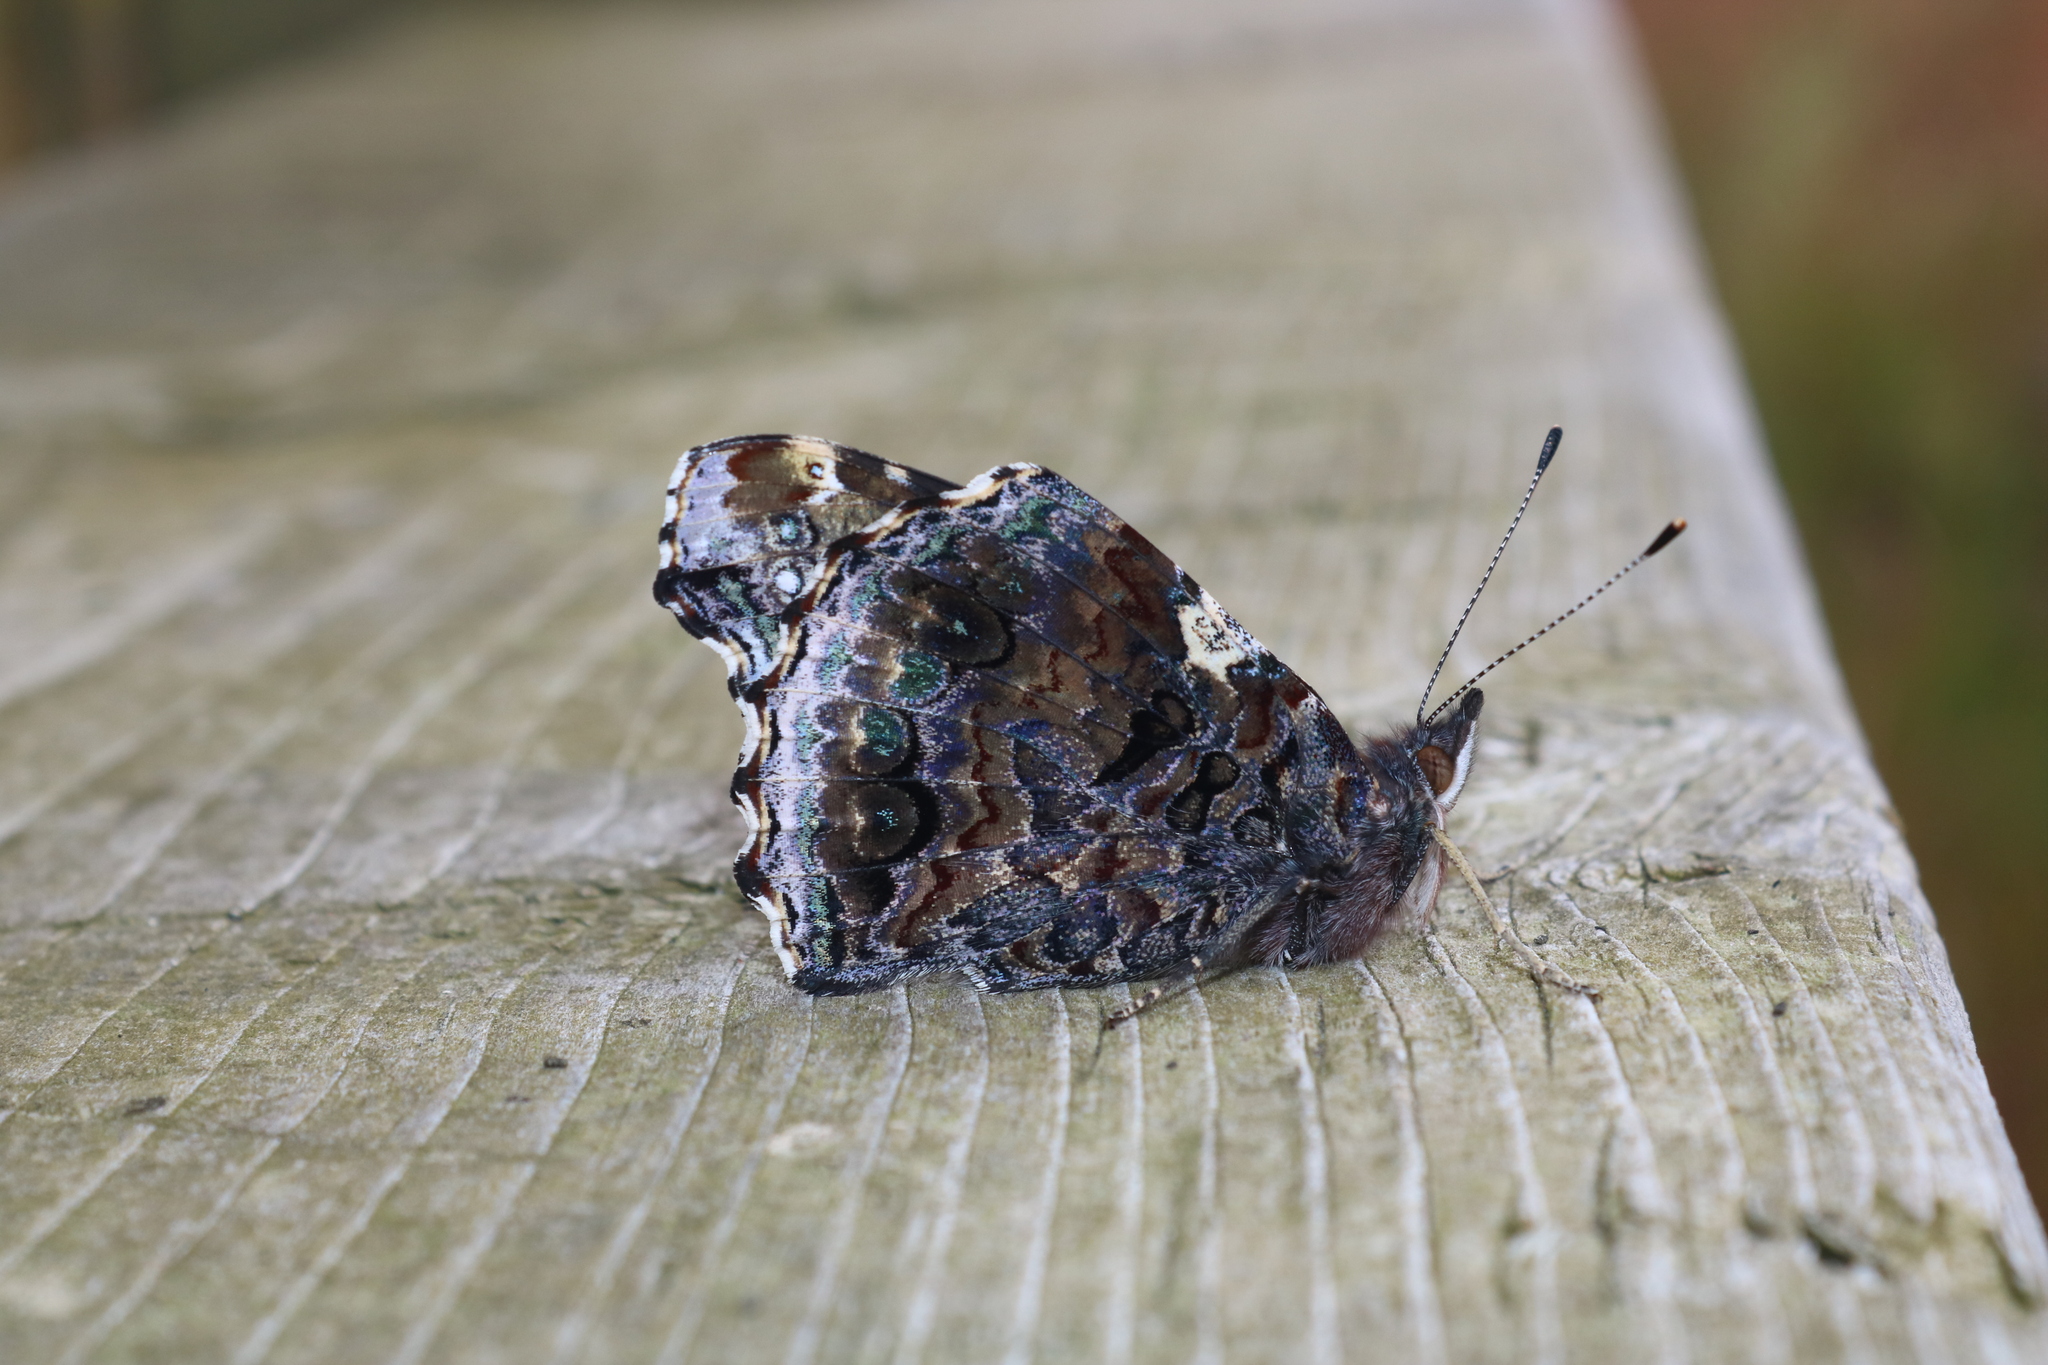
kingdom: Animalia
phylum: Arthropoda
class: Insecta
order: Lepidoptera
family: Nymphalidae
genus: Vanessa
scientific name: Vanessa atalanta
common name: Red admiral
